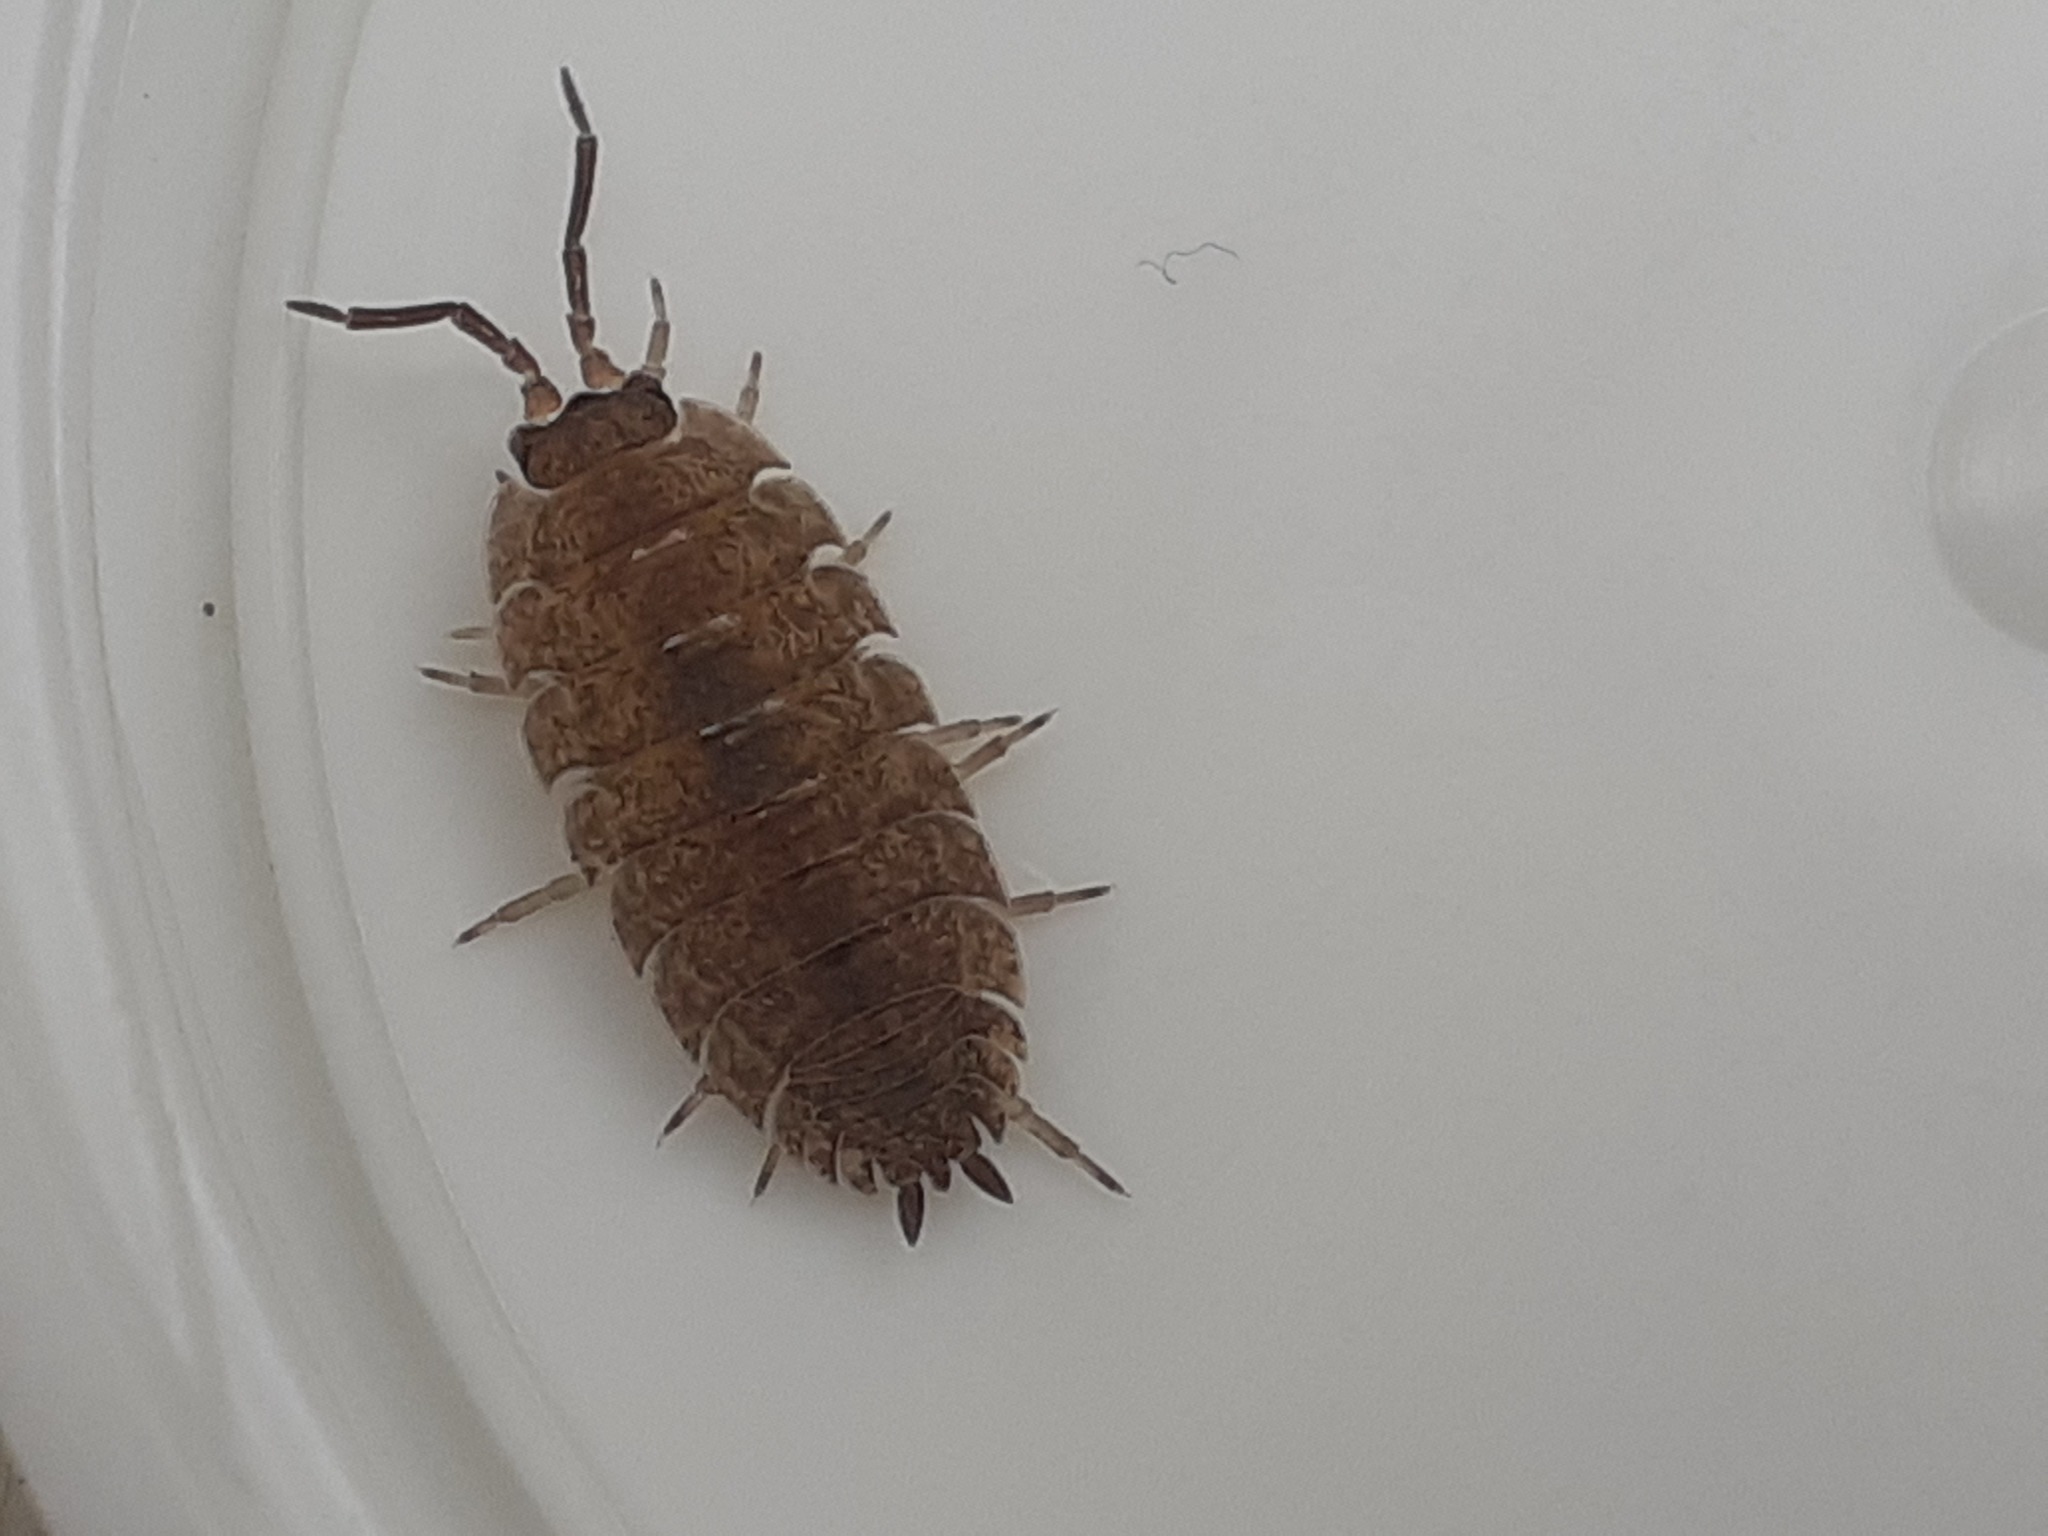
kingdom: Animalia
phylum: Arthropoda
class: Malacostraca
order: Isopoda
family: Porcellionidae
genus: Porcellio
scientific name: Porcellio scaber
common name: Common rough woodlouse
